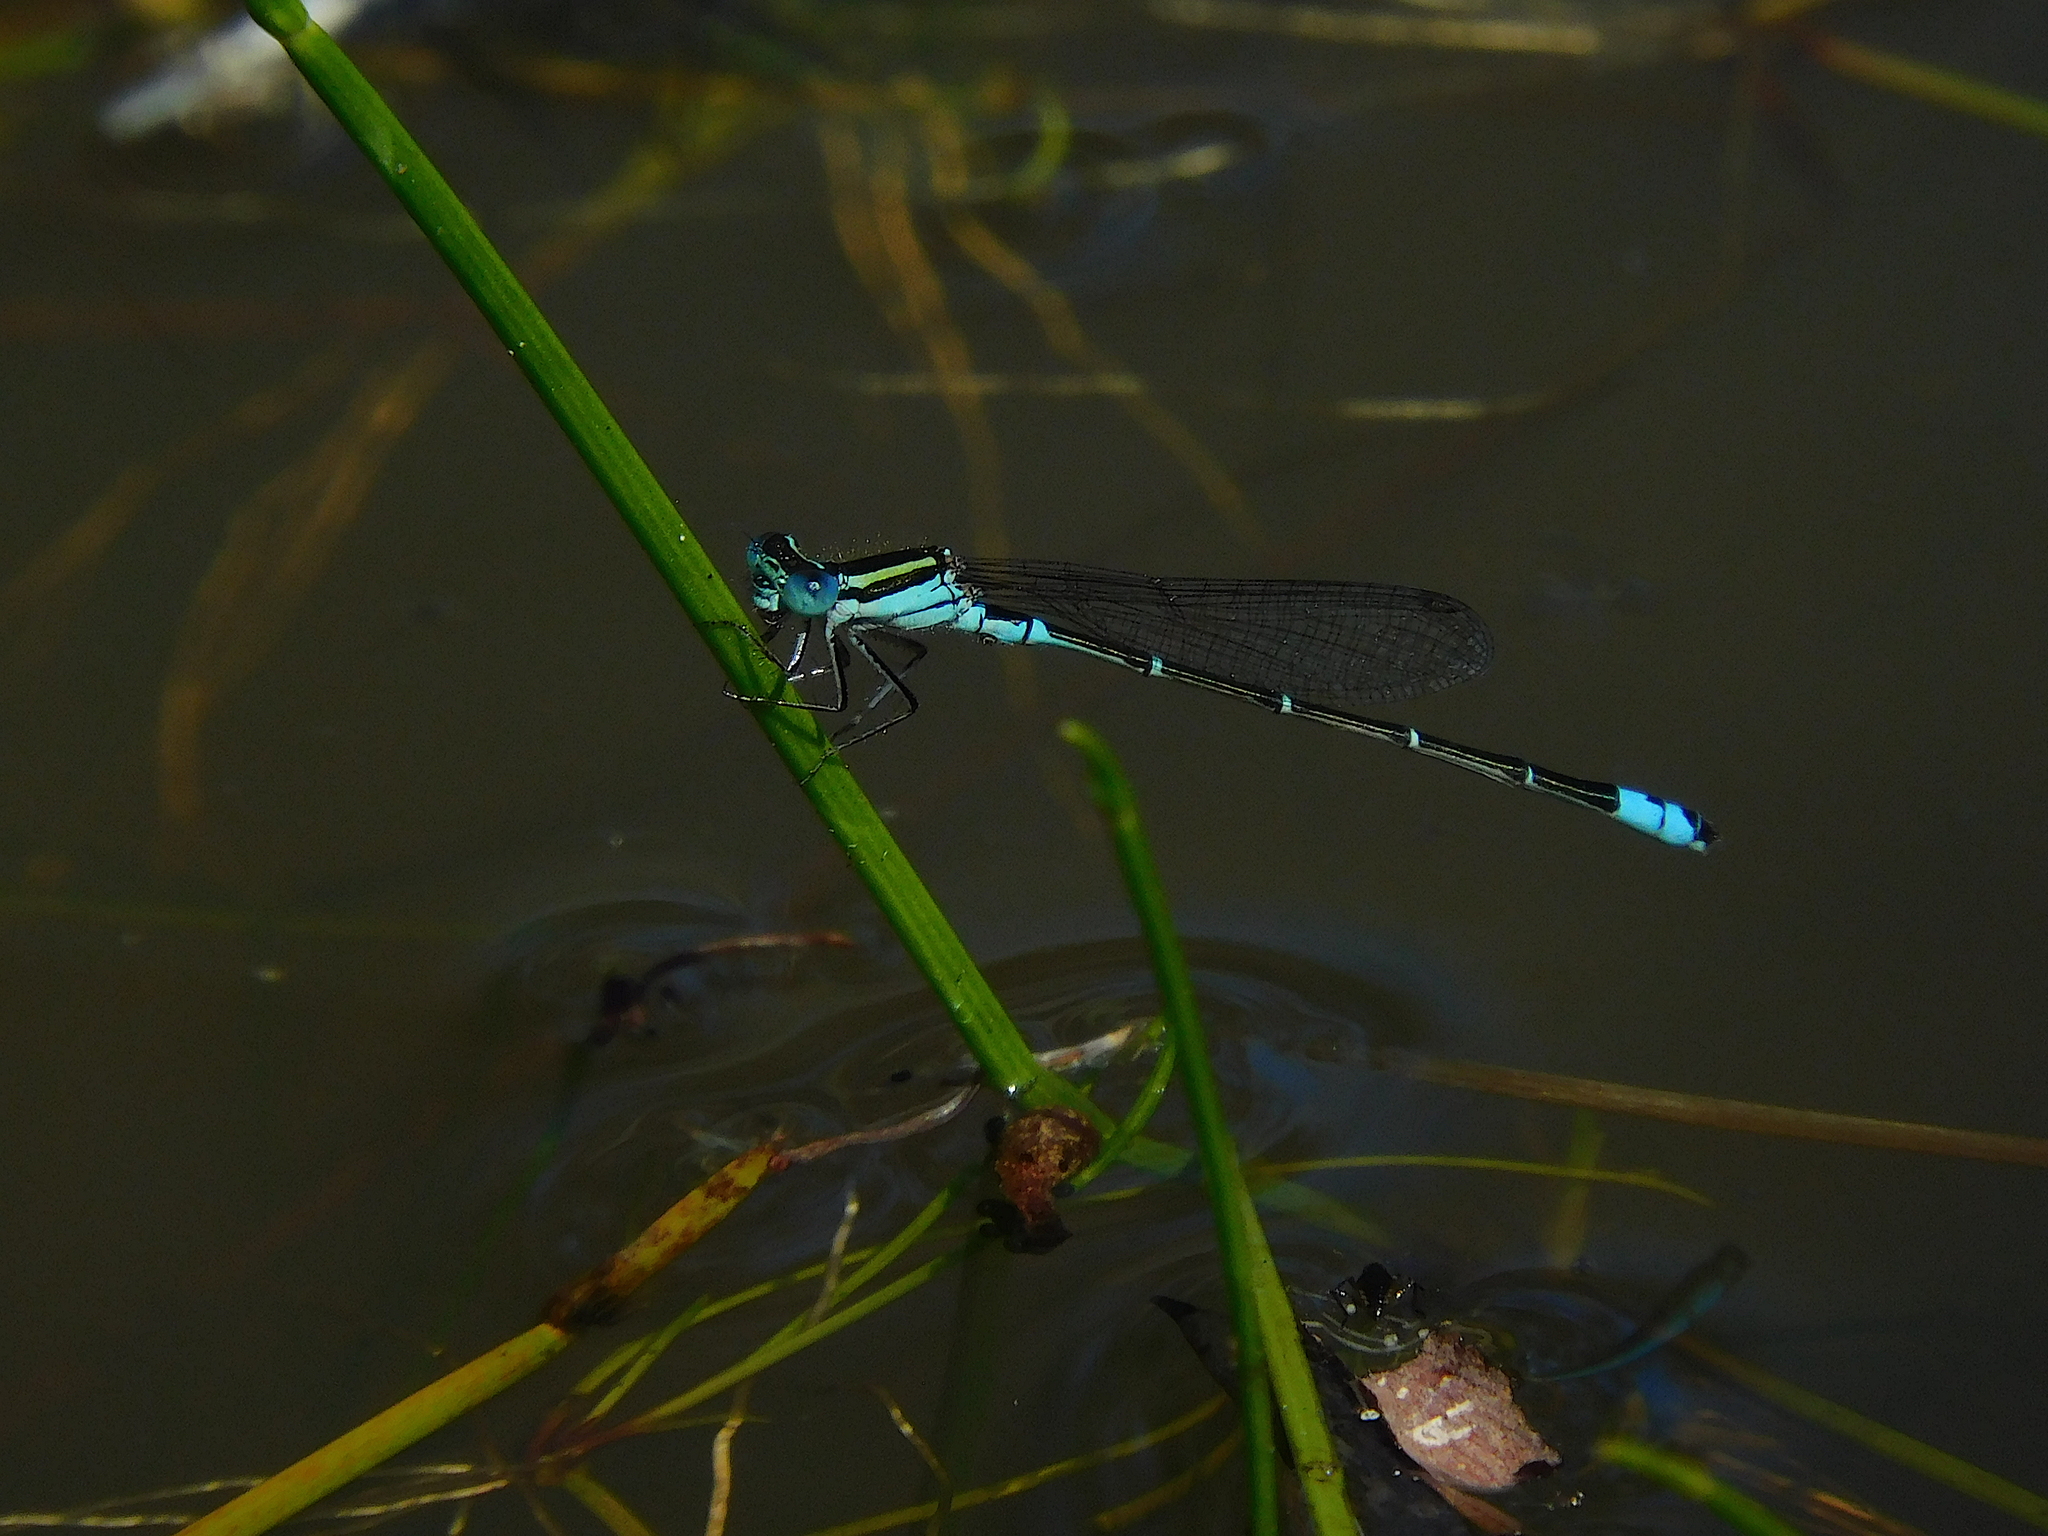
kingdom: Animalia
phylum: Arthropoda
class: Insecta
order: Odonata
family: Coenagrionidae
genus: Austroagrion
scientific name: Austroagrion watsoni
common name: Eastern billabongfly
